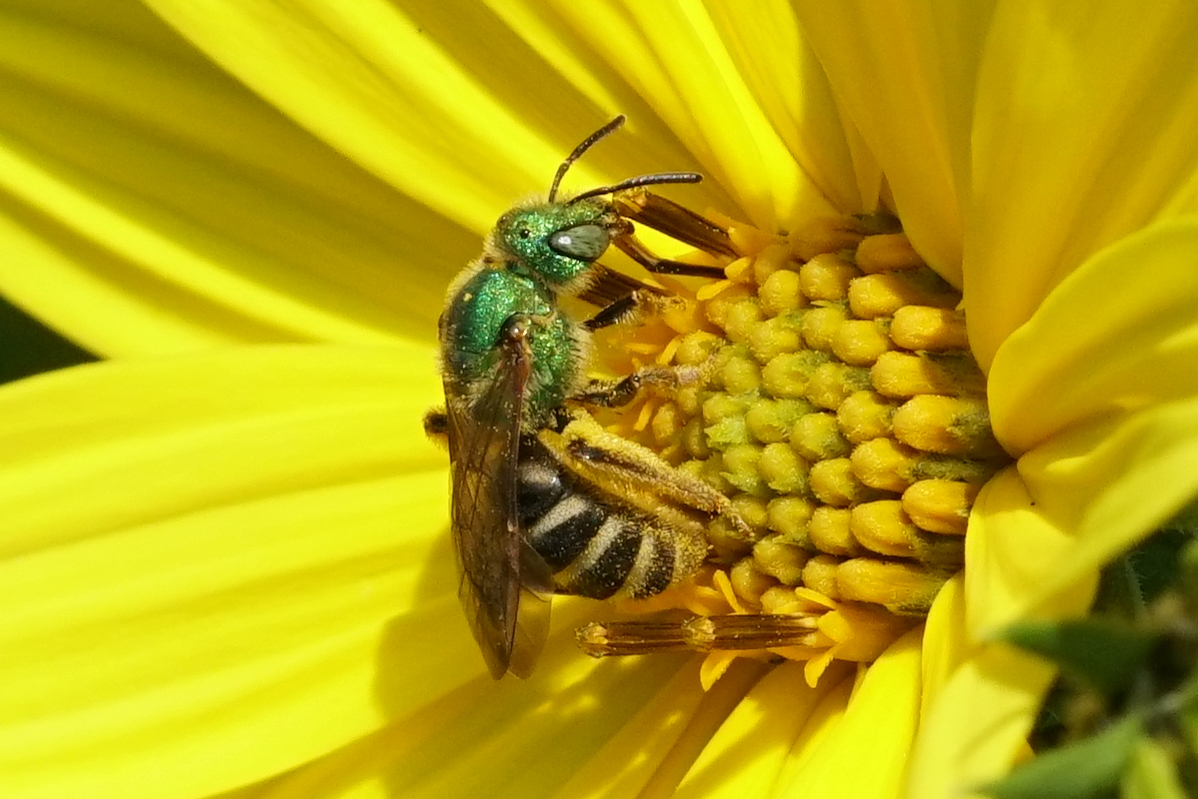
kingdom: Animalia
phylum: Arthropoda
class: Insecta
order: Hymenoptera
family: Halictidae
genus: Agapostemon
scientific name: Agapostemon virescens
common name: Bicolored striped sweat bee
